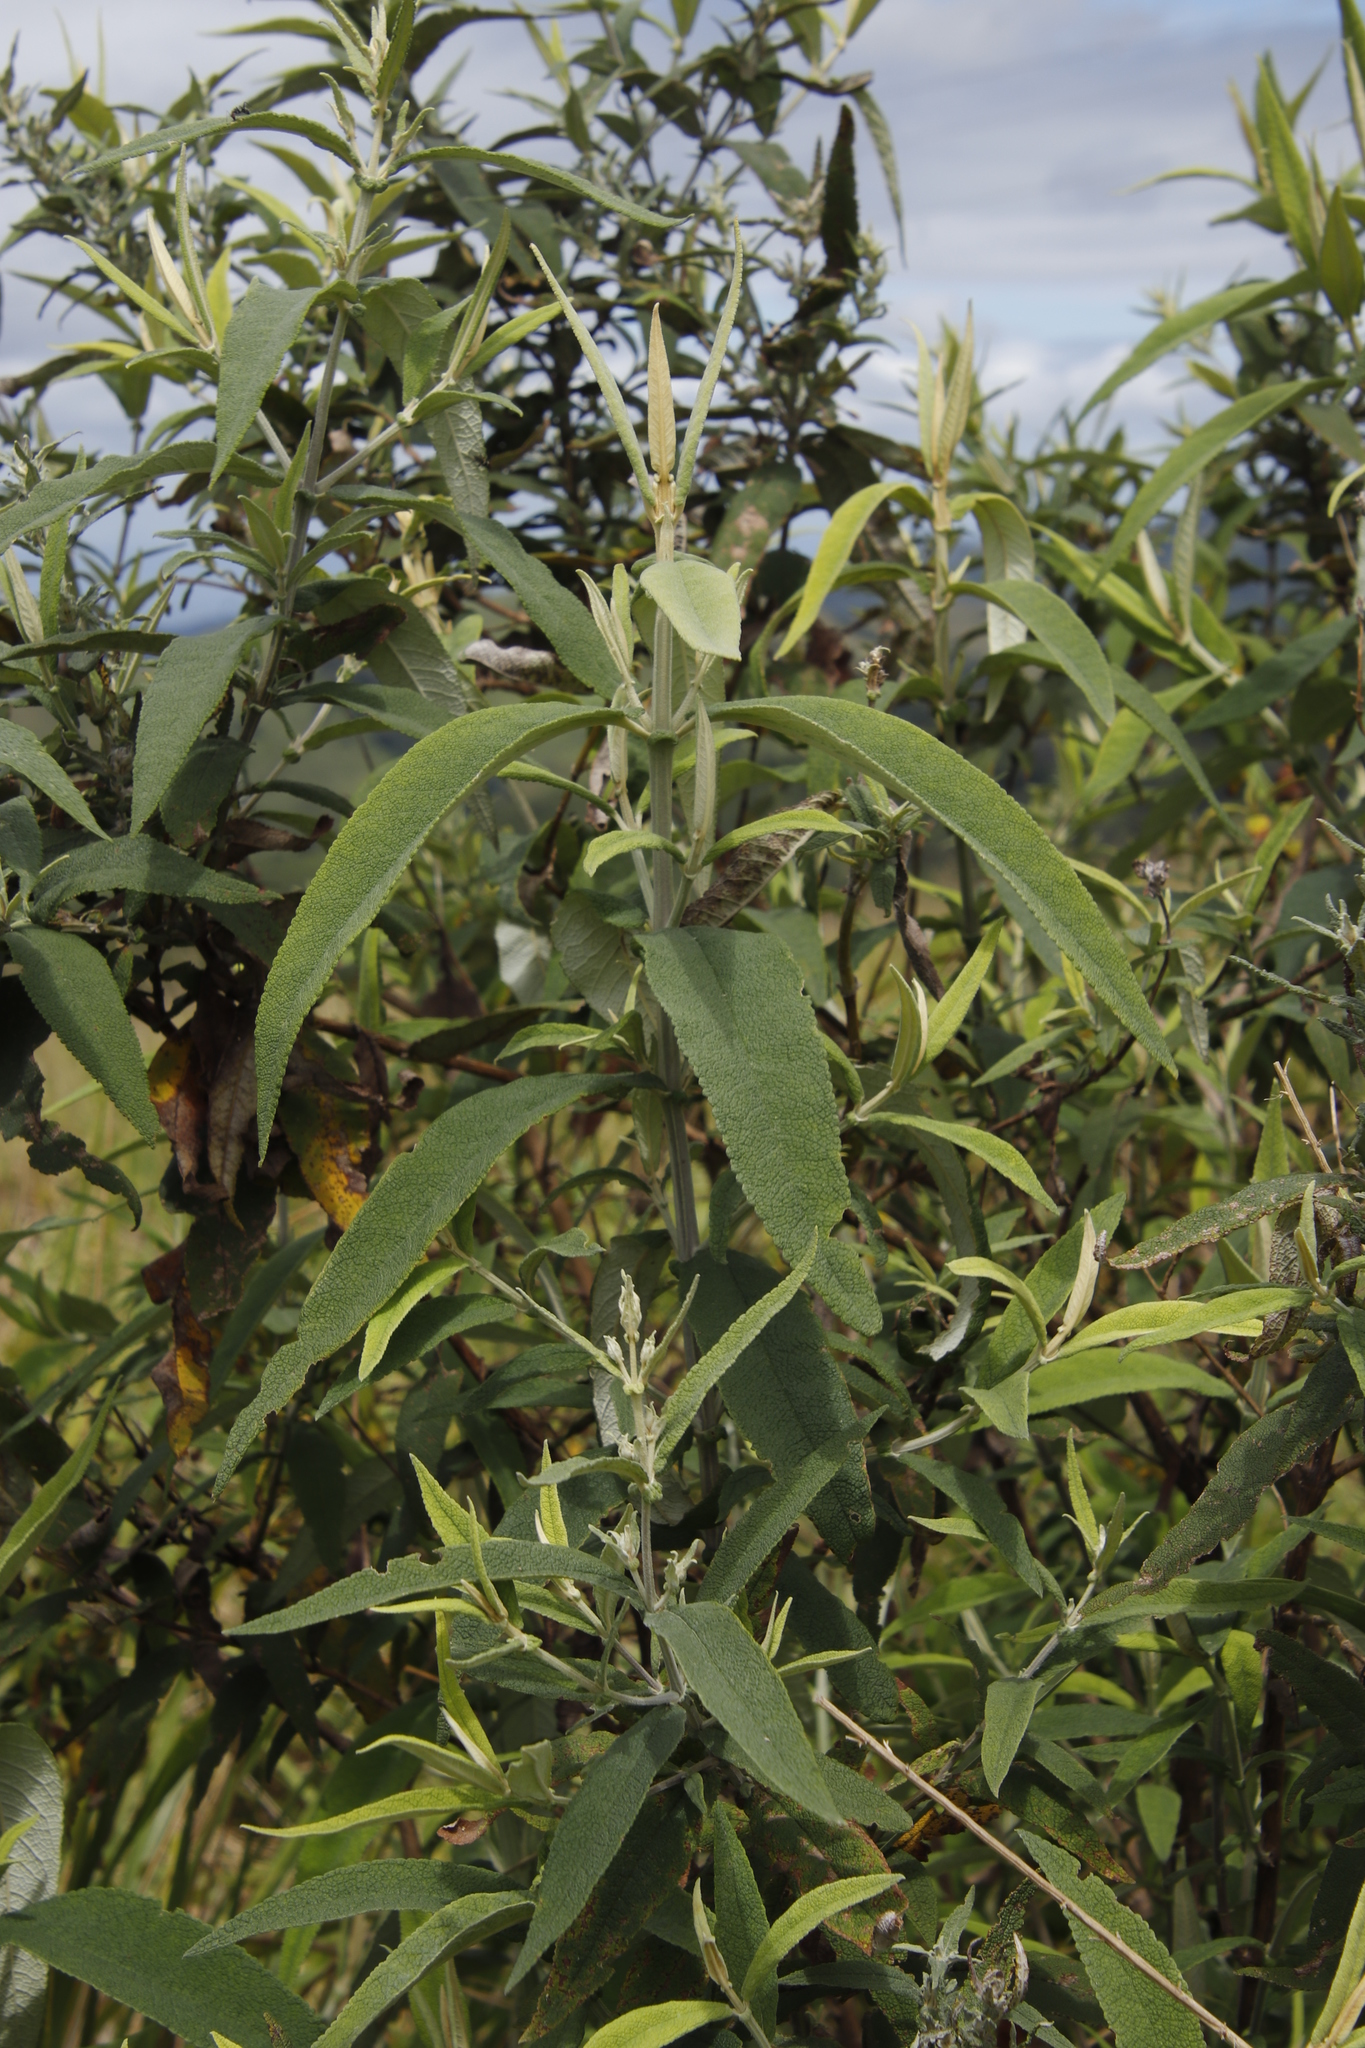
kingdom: Plantae
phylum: Tracheophyta
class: Magnoliopsida
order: Lamiales
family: Scrophulariaceae
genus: Buddleja
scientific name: Buddleja salviifolia
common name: Sagewood
